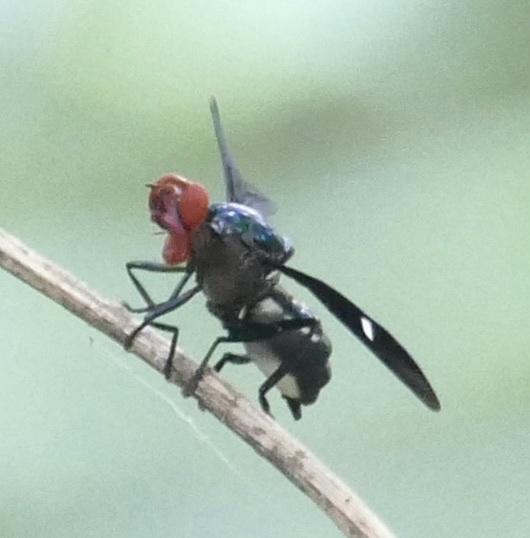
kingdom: Animalia
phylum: Arthropoda
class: Insecta
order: Diptera
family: Platystomatidae
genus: Clitodoca
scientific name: Clitodoca fenestralis
